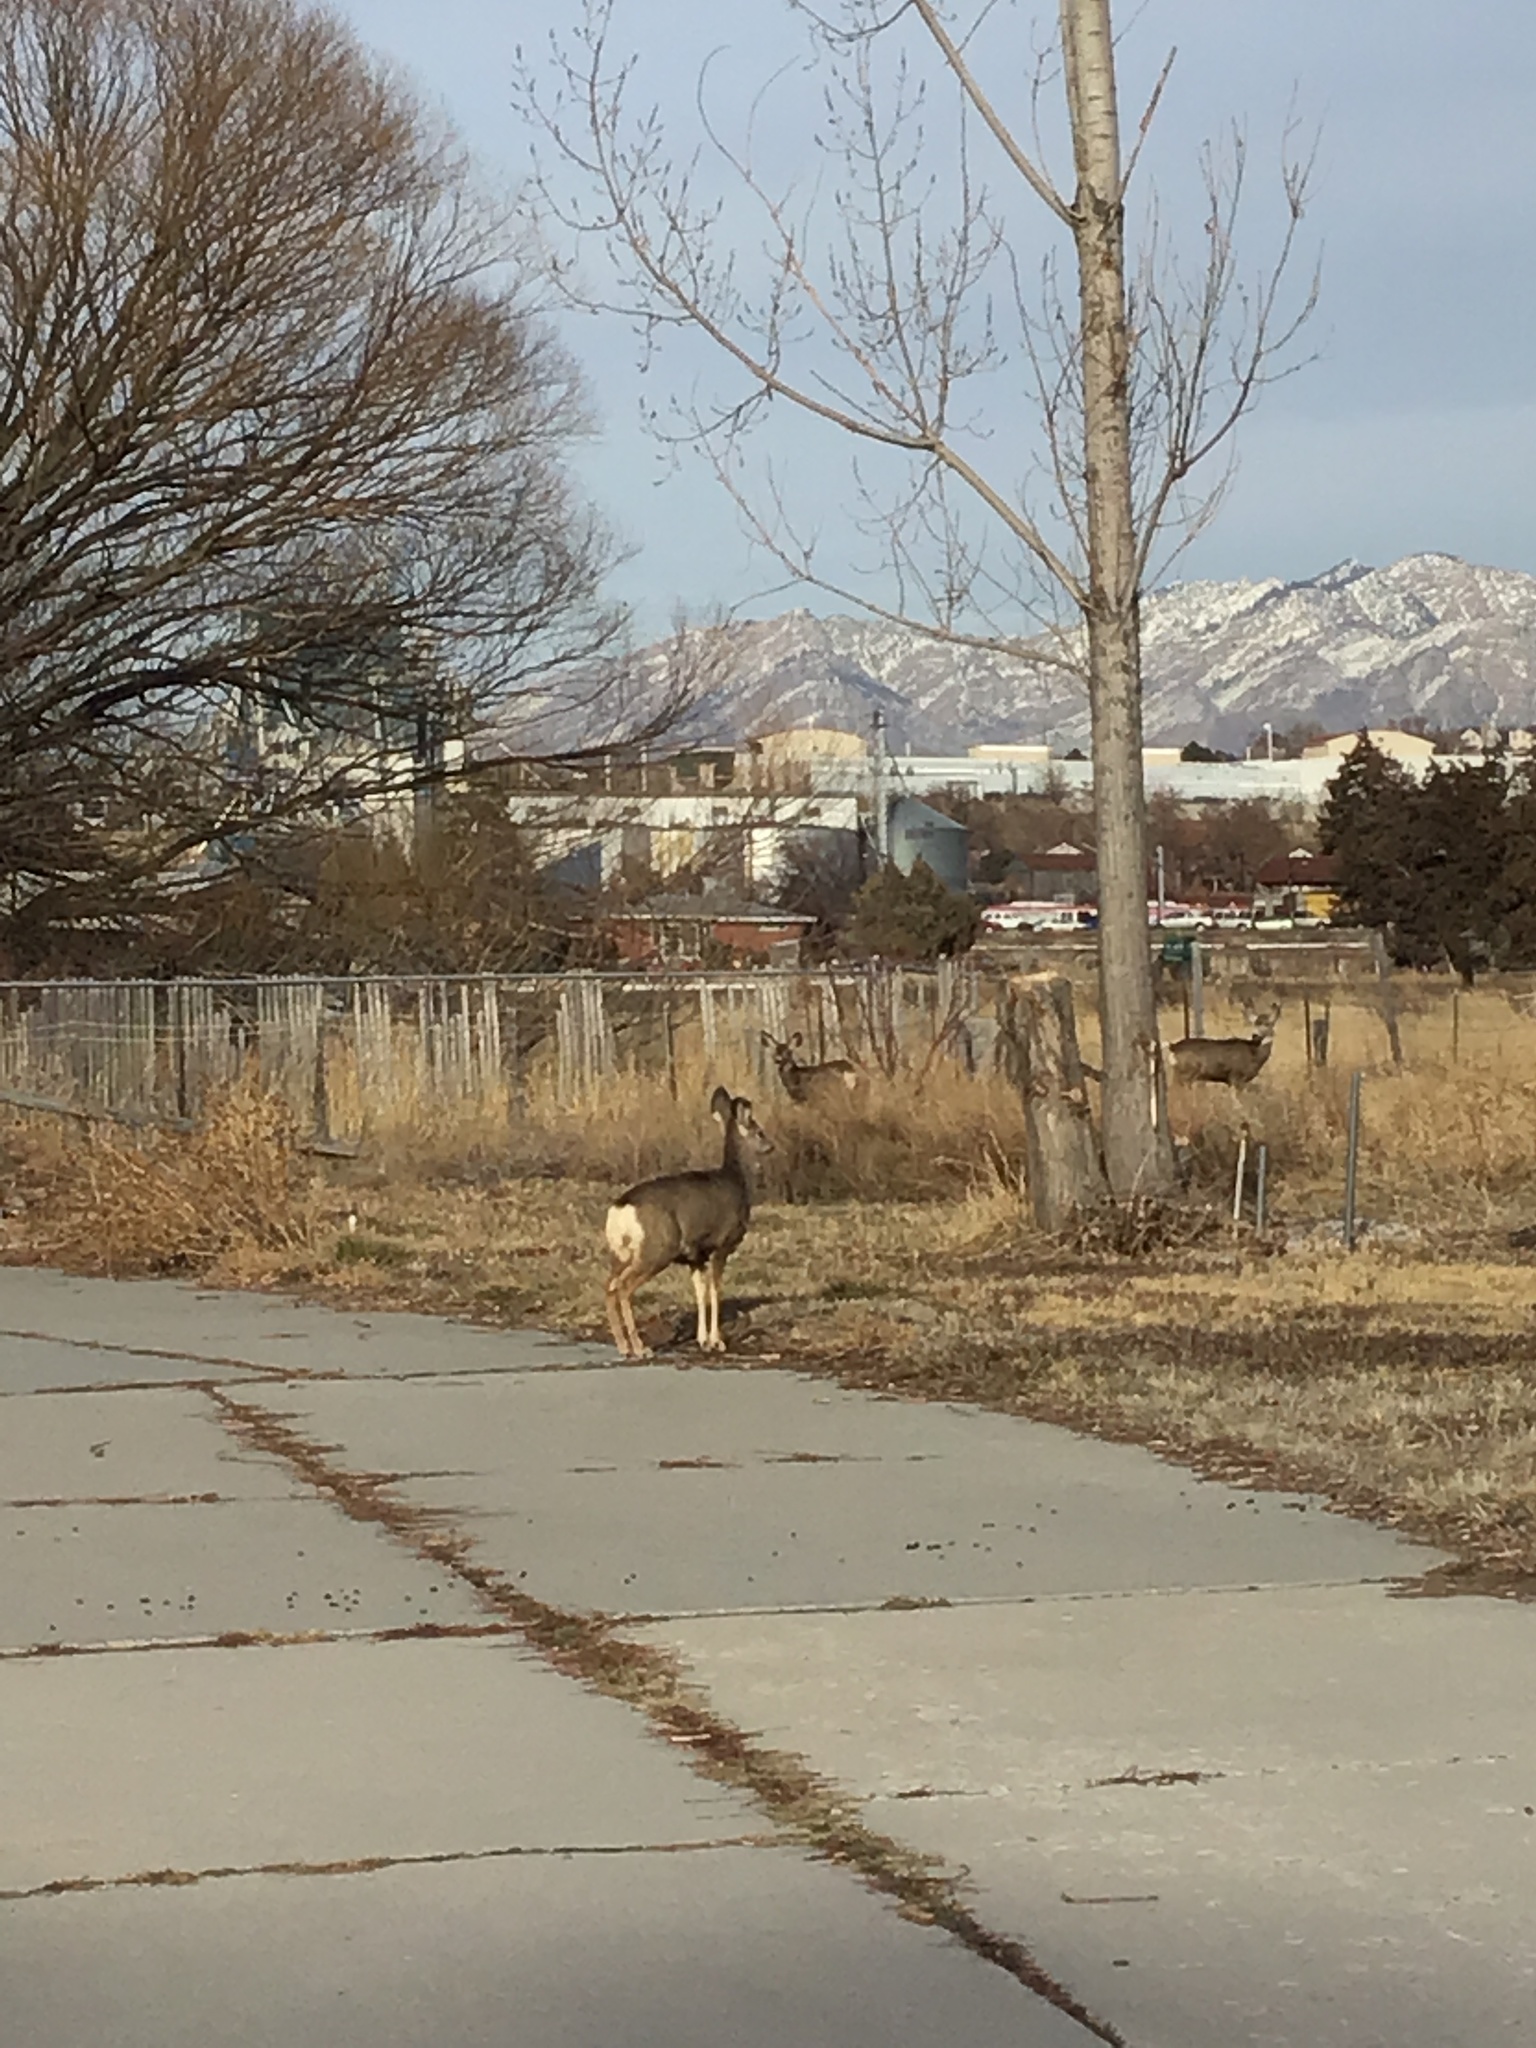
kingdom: Animalia
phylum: Chordata
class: Mammalia
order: Artiodactyla
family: Cervidae
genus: Odocoileus
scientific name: Odocoileus hemionus
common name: Mule deer
